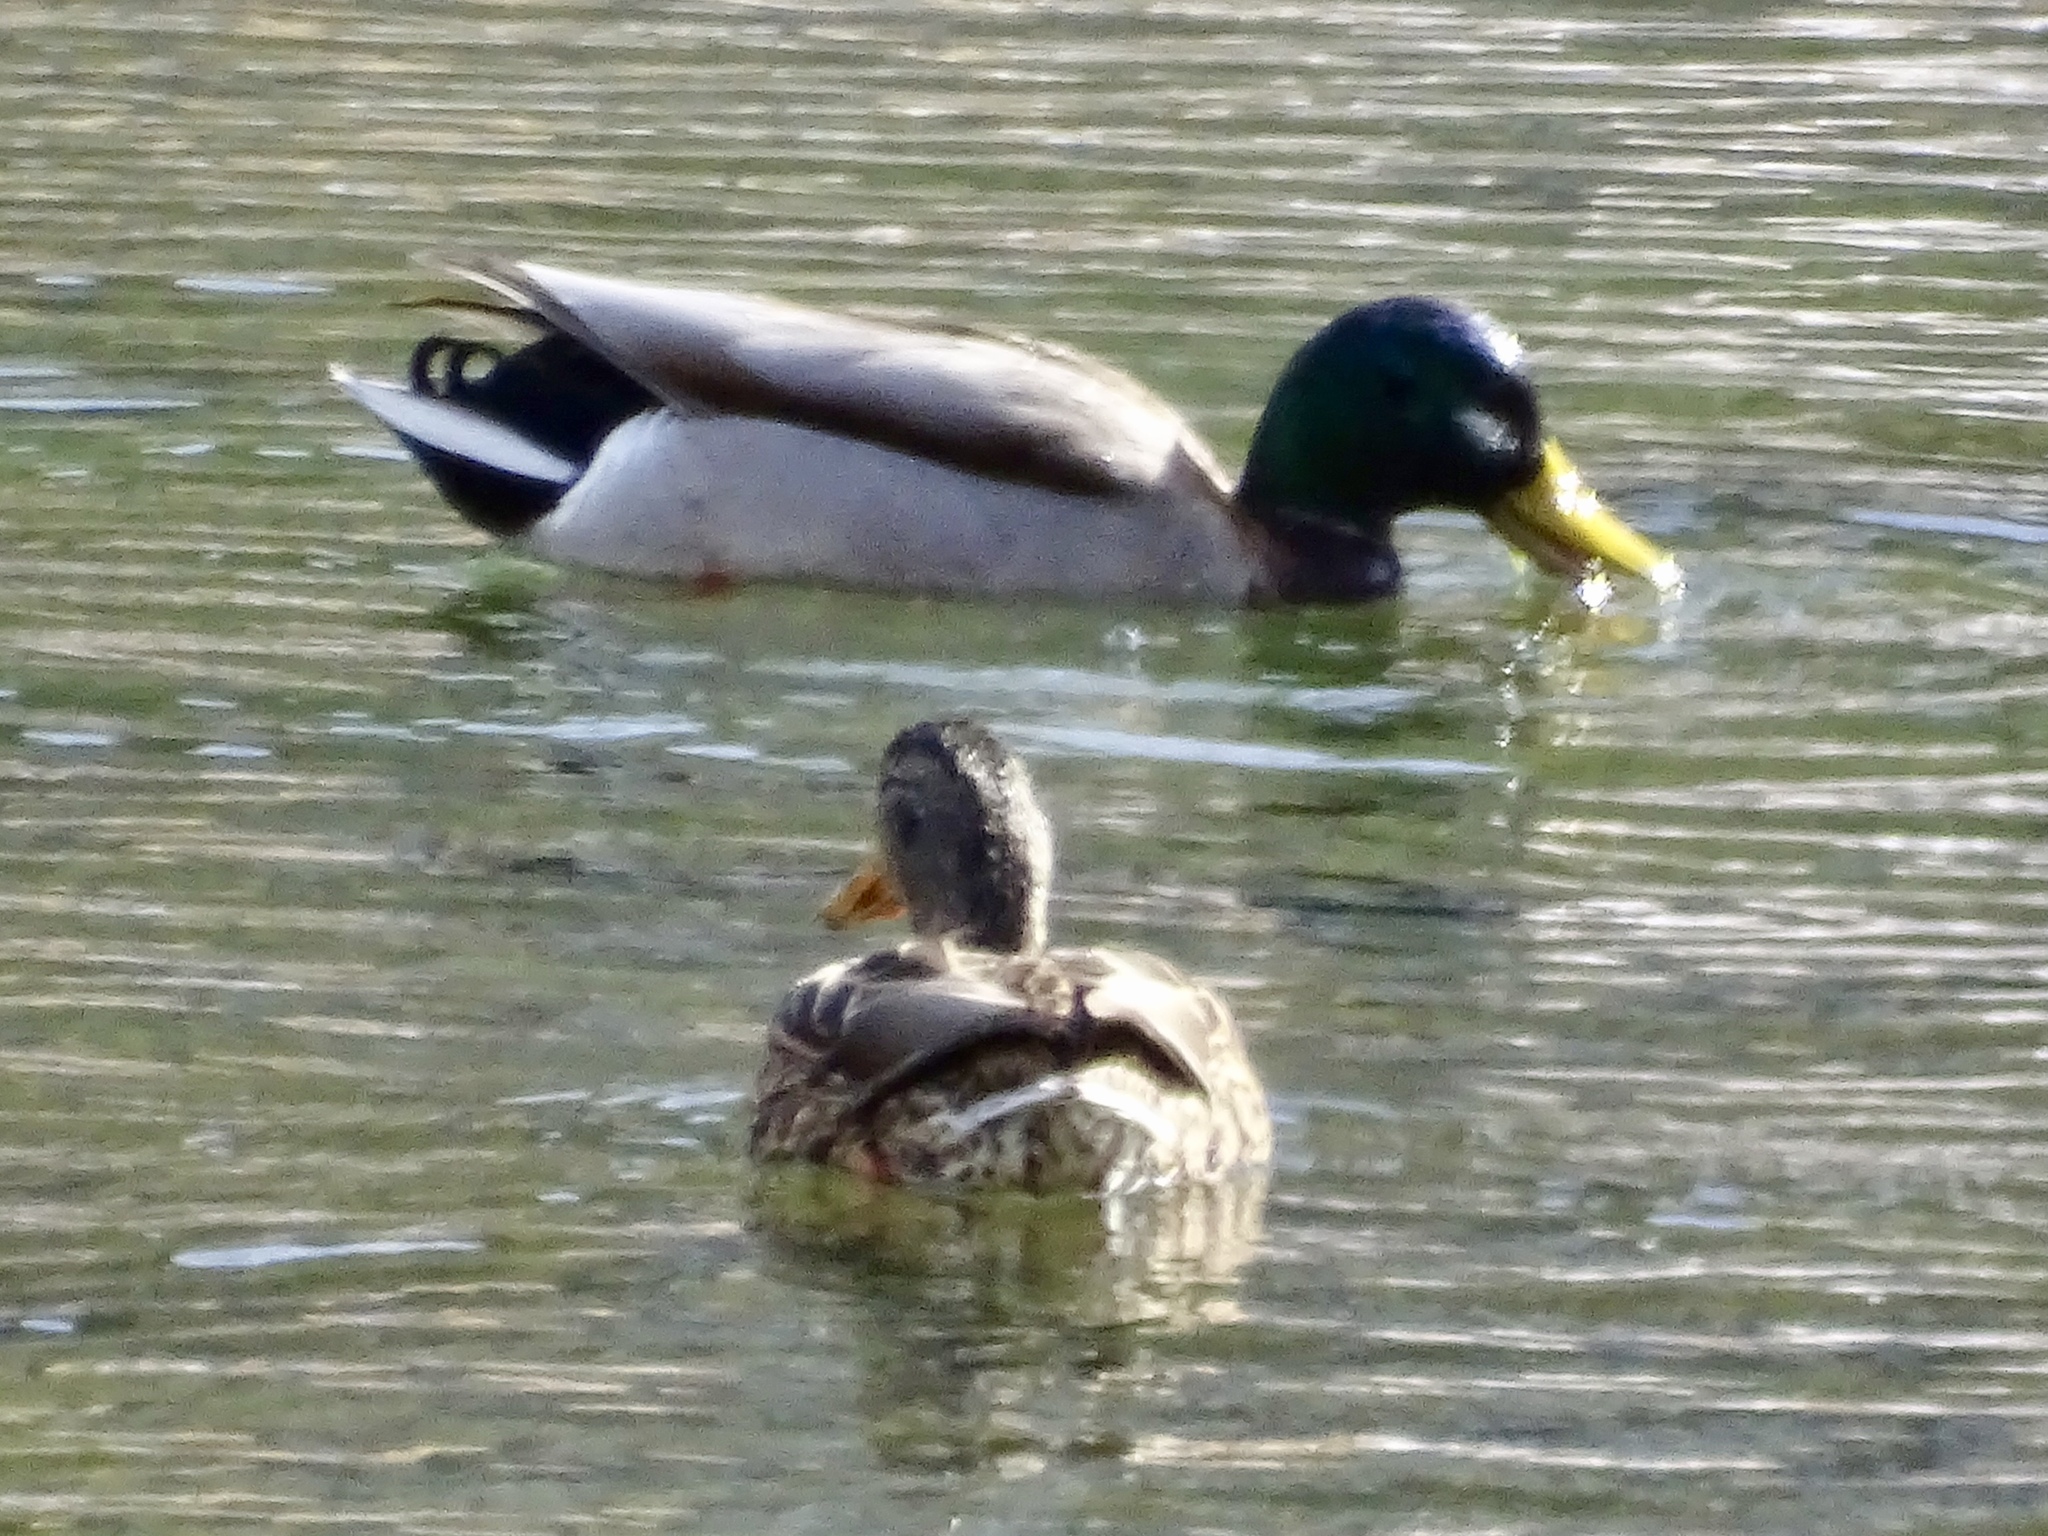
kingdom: Animalia
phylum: Chordata
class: Aves
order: Anseriformes
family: Anatidae
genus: Anas
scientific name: Anas platyrhynchos
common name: Mallard
